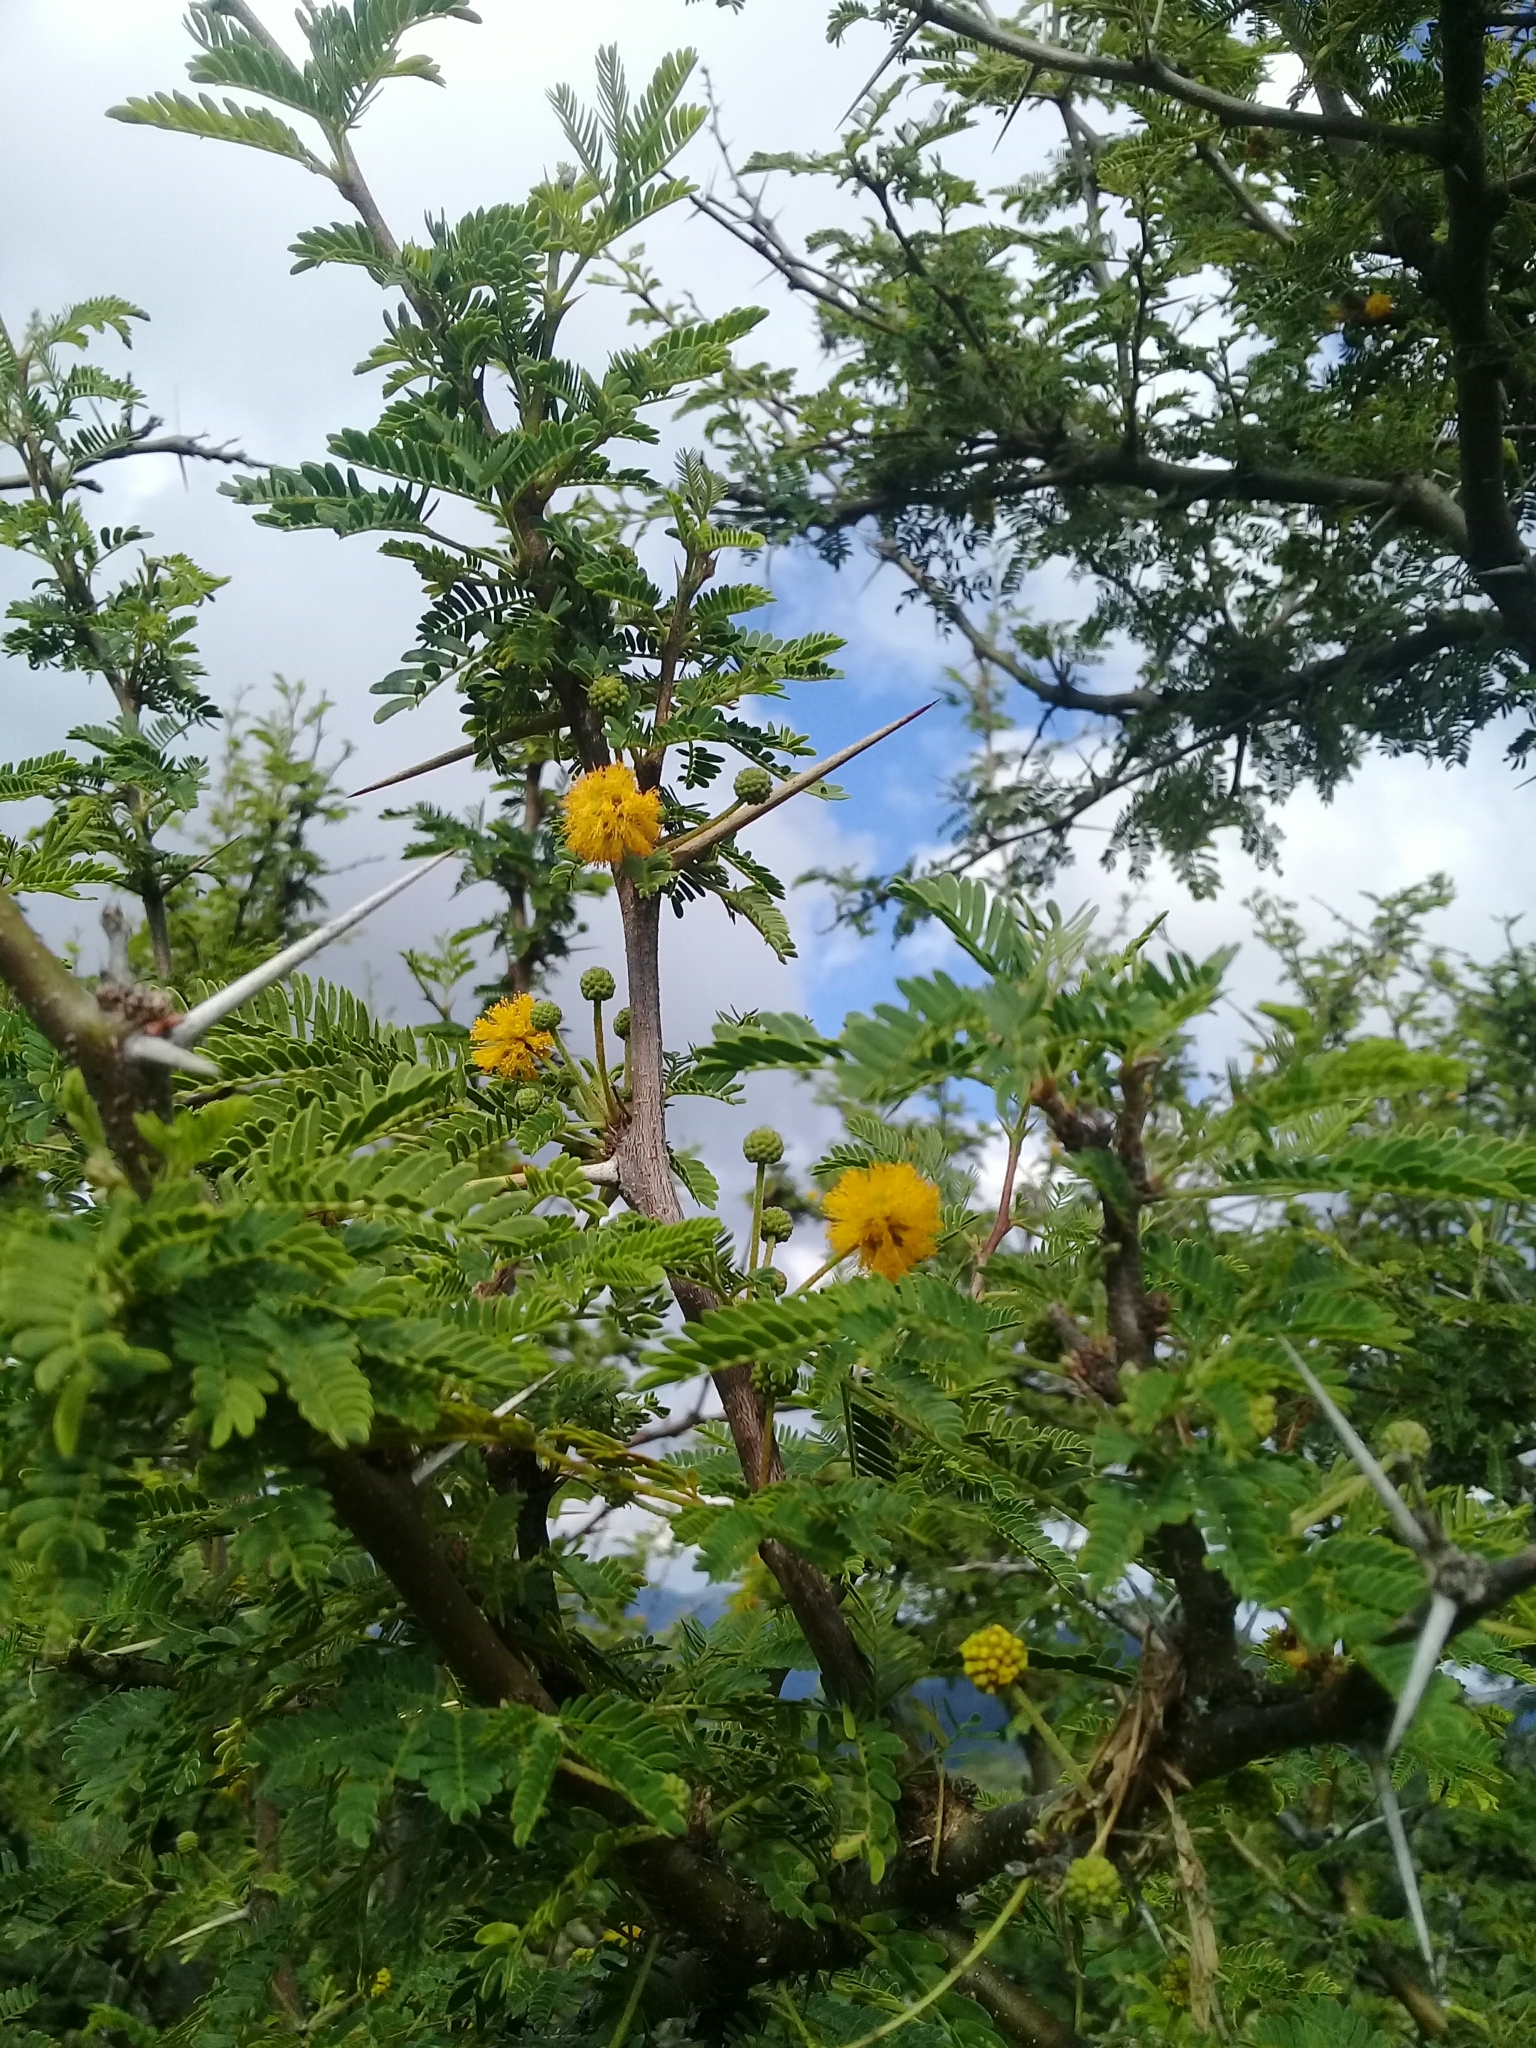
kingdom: Plantae
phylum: Tracheophyta
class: Magnoliopsida
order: Fabales
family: Fabaceae
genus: Vachellia
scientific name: Vachellia farnesiana
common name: Sweet acacia
